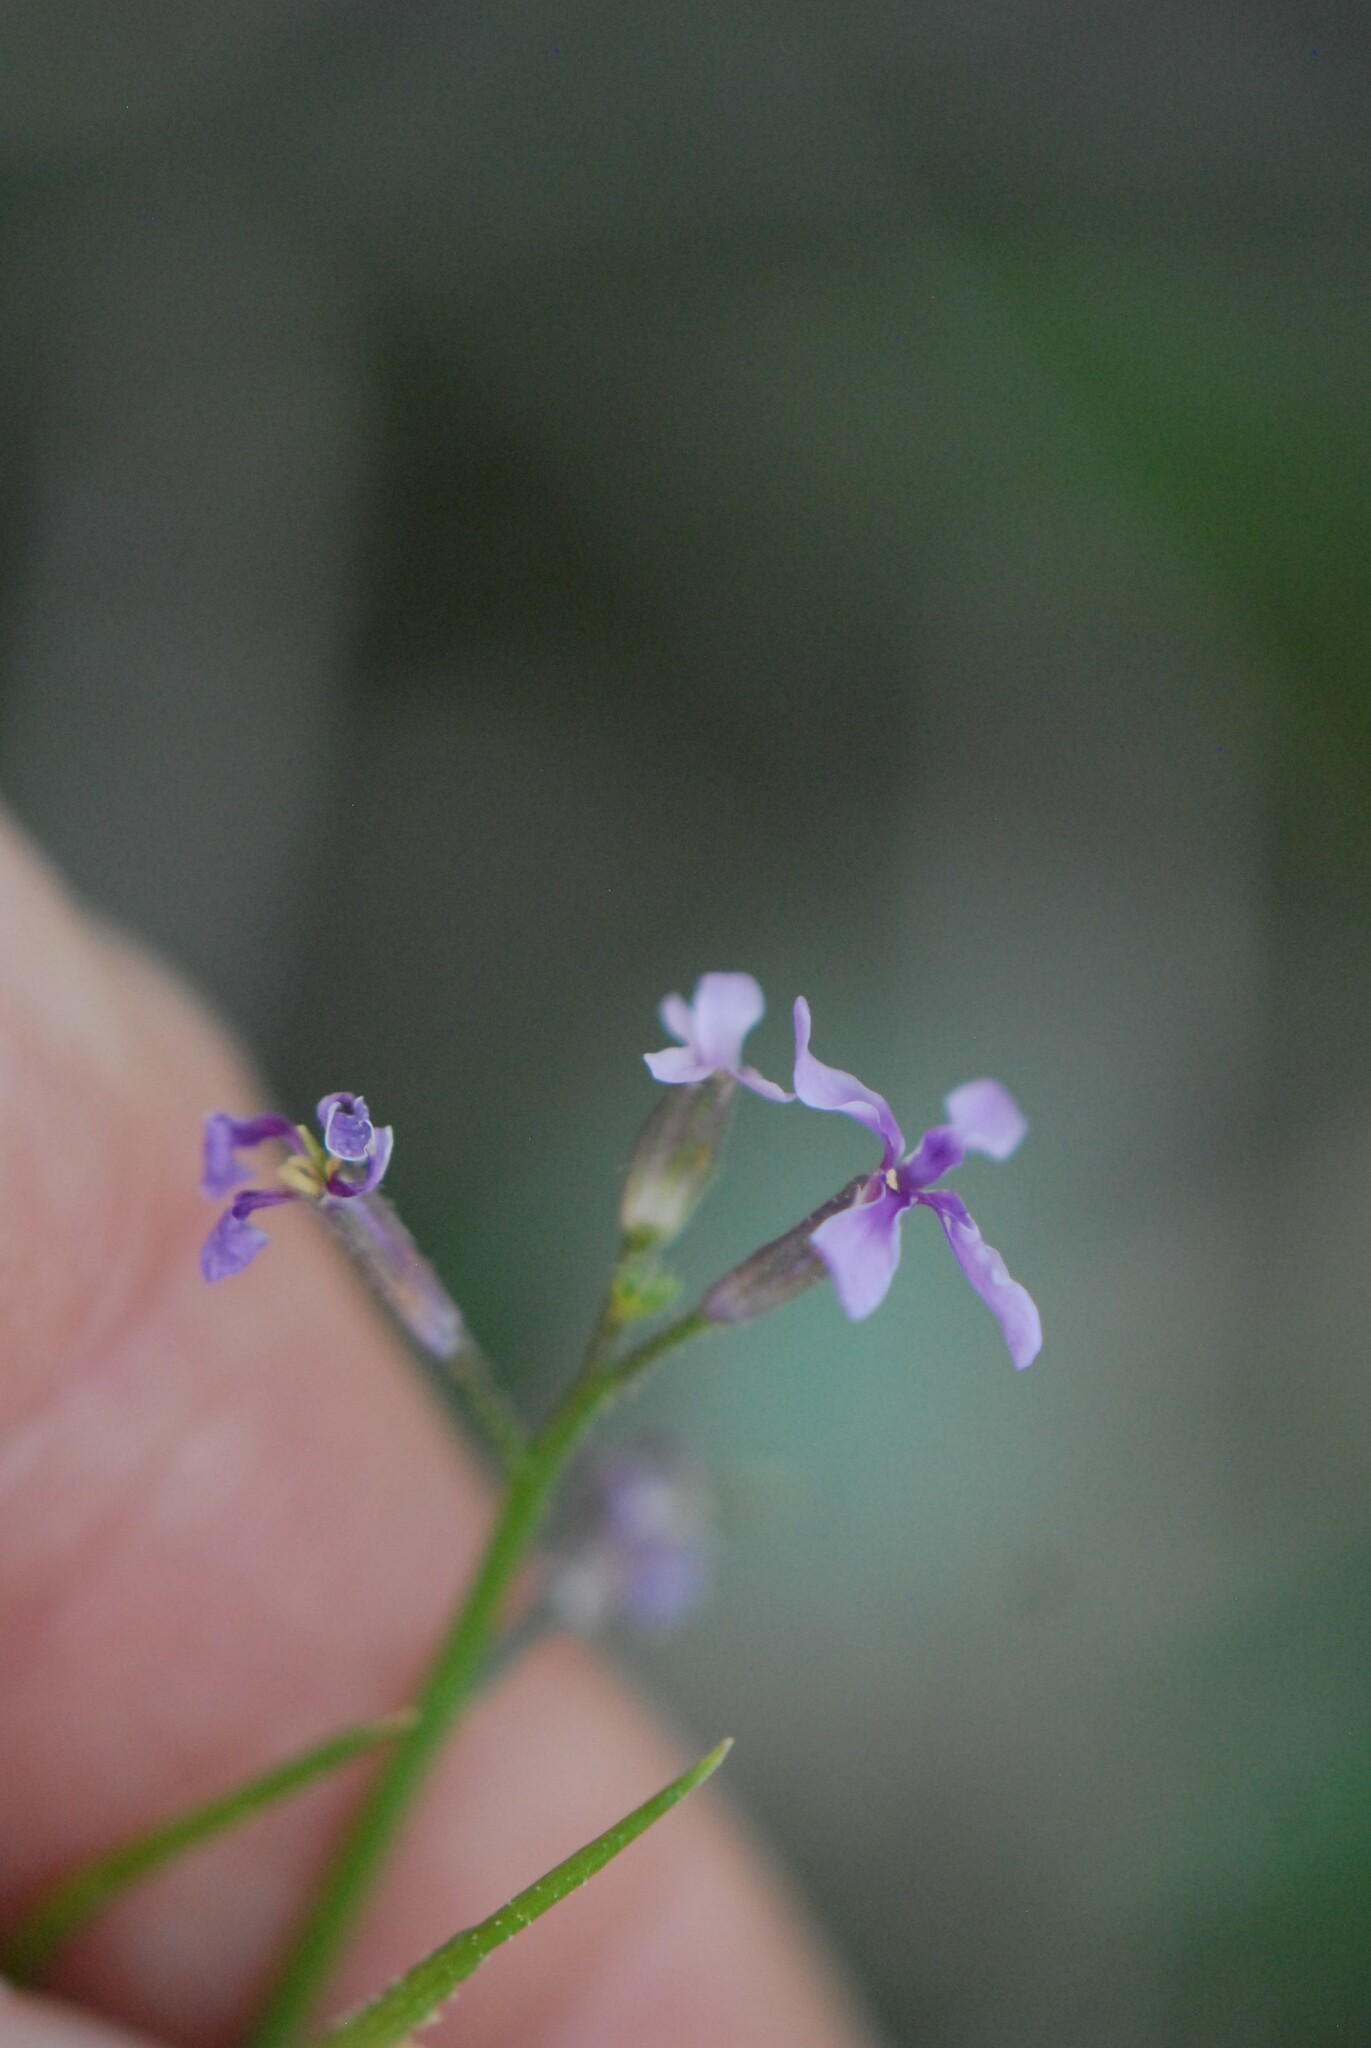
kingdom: Plantae
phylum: Tracheophyta
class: Magnoliopsida
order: Brassicales
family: Brassicaceae
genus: Chorispora
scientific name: Chorispora tenella
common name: Crossflower
